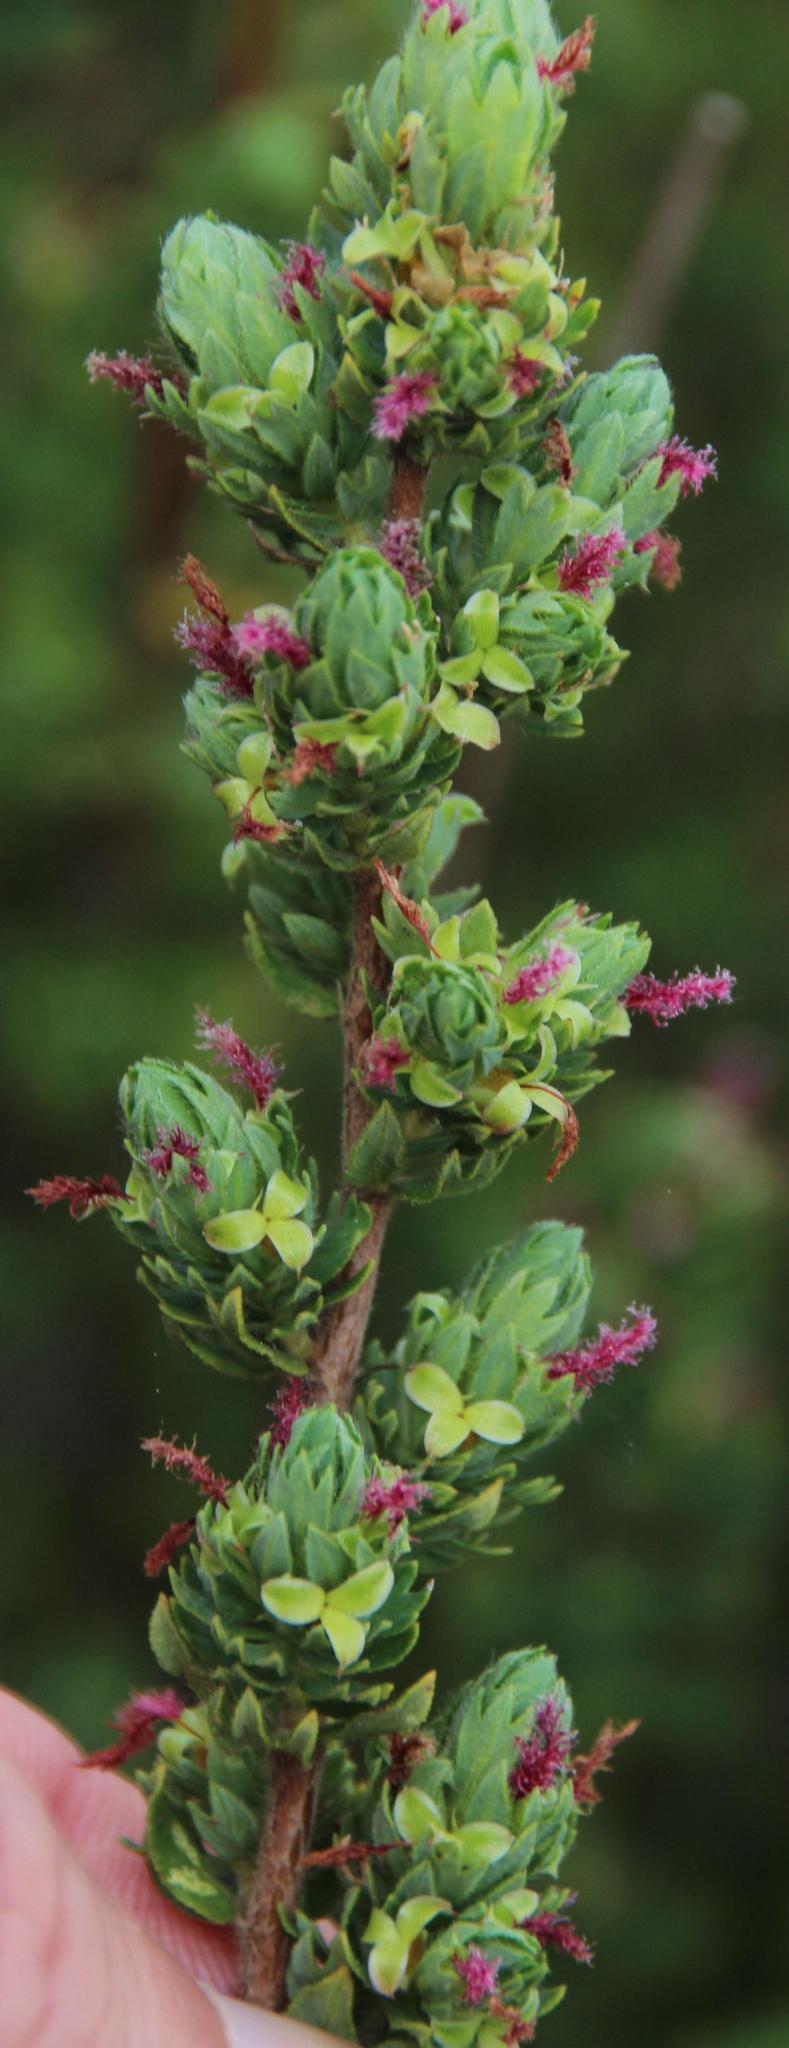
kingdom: Plantae
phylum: Tracheophyta
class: Magnoliopsida
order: Rosales
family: Rosaceae
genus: Cliffortia
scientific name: Cliffortia polygonifolia
